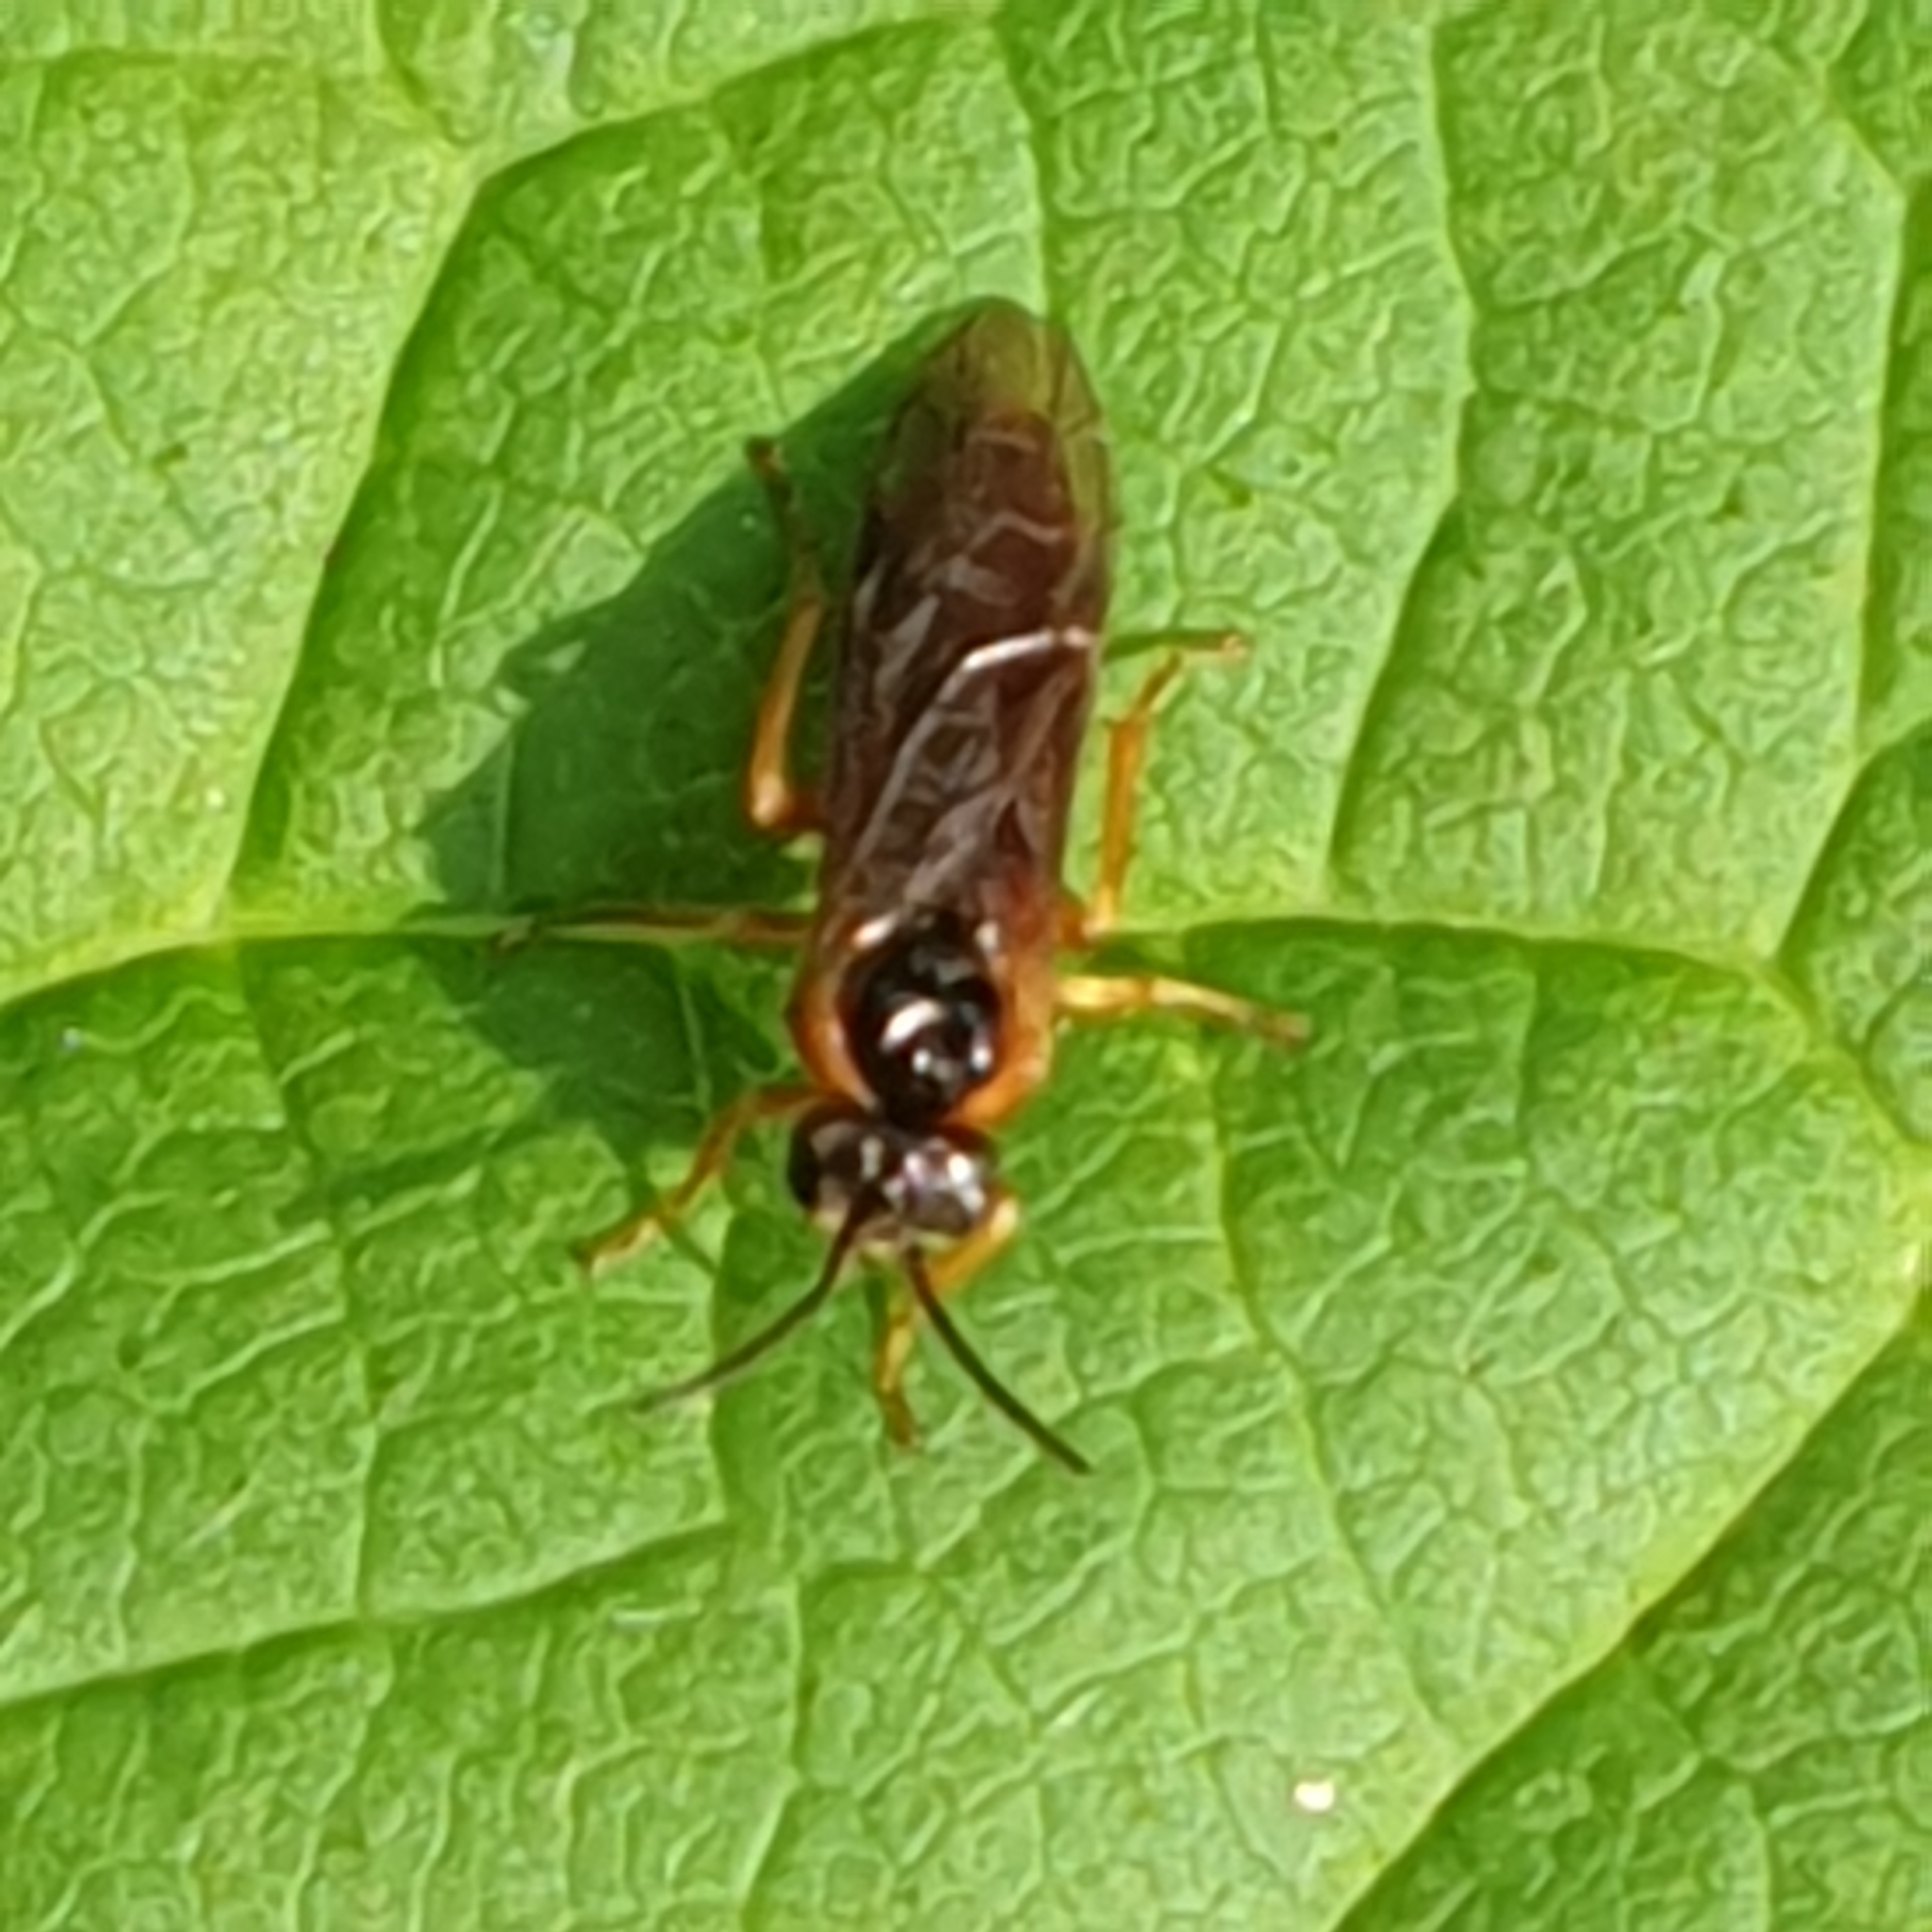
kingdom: Animalia
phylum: Arthropoda
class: Insecta
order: Hymenoptera
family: Tenthredinidae
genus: Monostegia
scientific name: Monostegia abdominalis
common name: Tenthredid wasp
